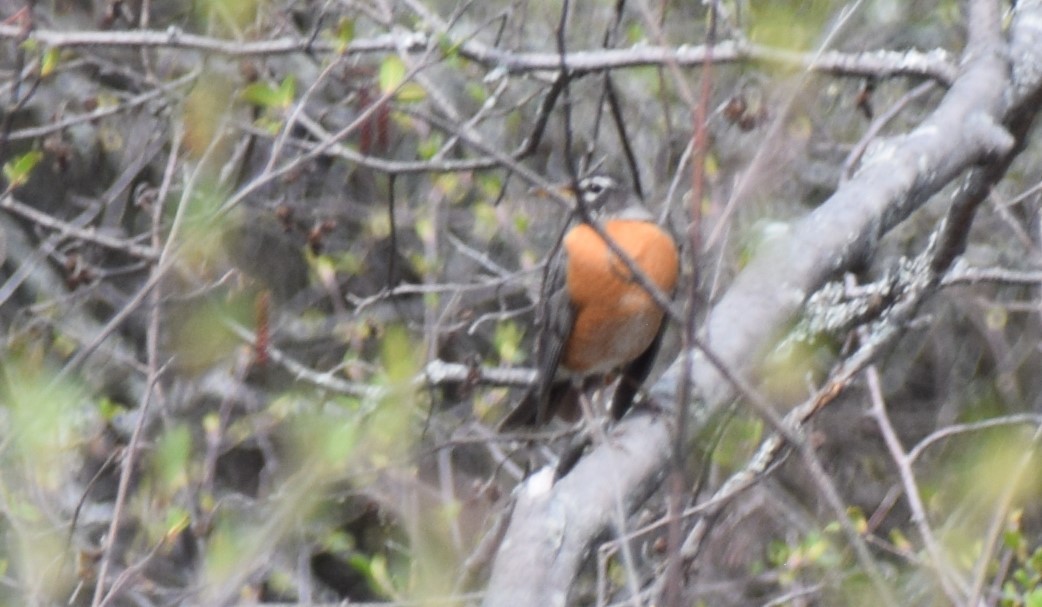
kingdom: Animalia
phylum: Chordata
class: Aves
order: Passeriformes
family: Turdidae
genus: Turdus
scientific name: Turdus migratorius
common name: American robin
